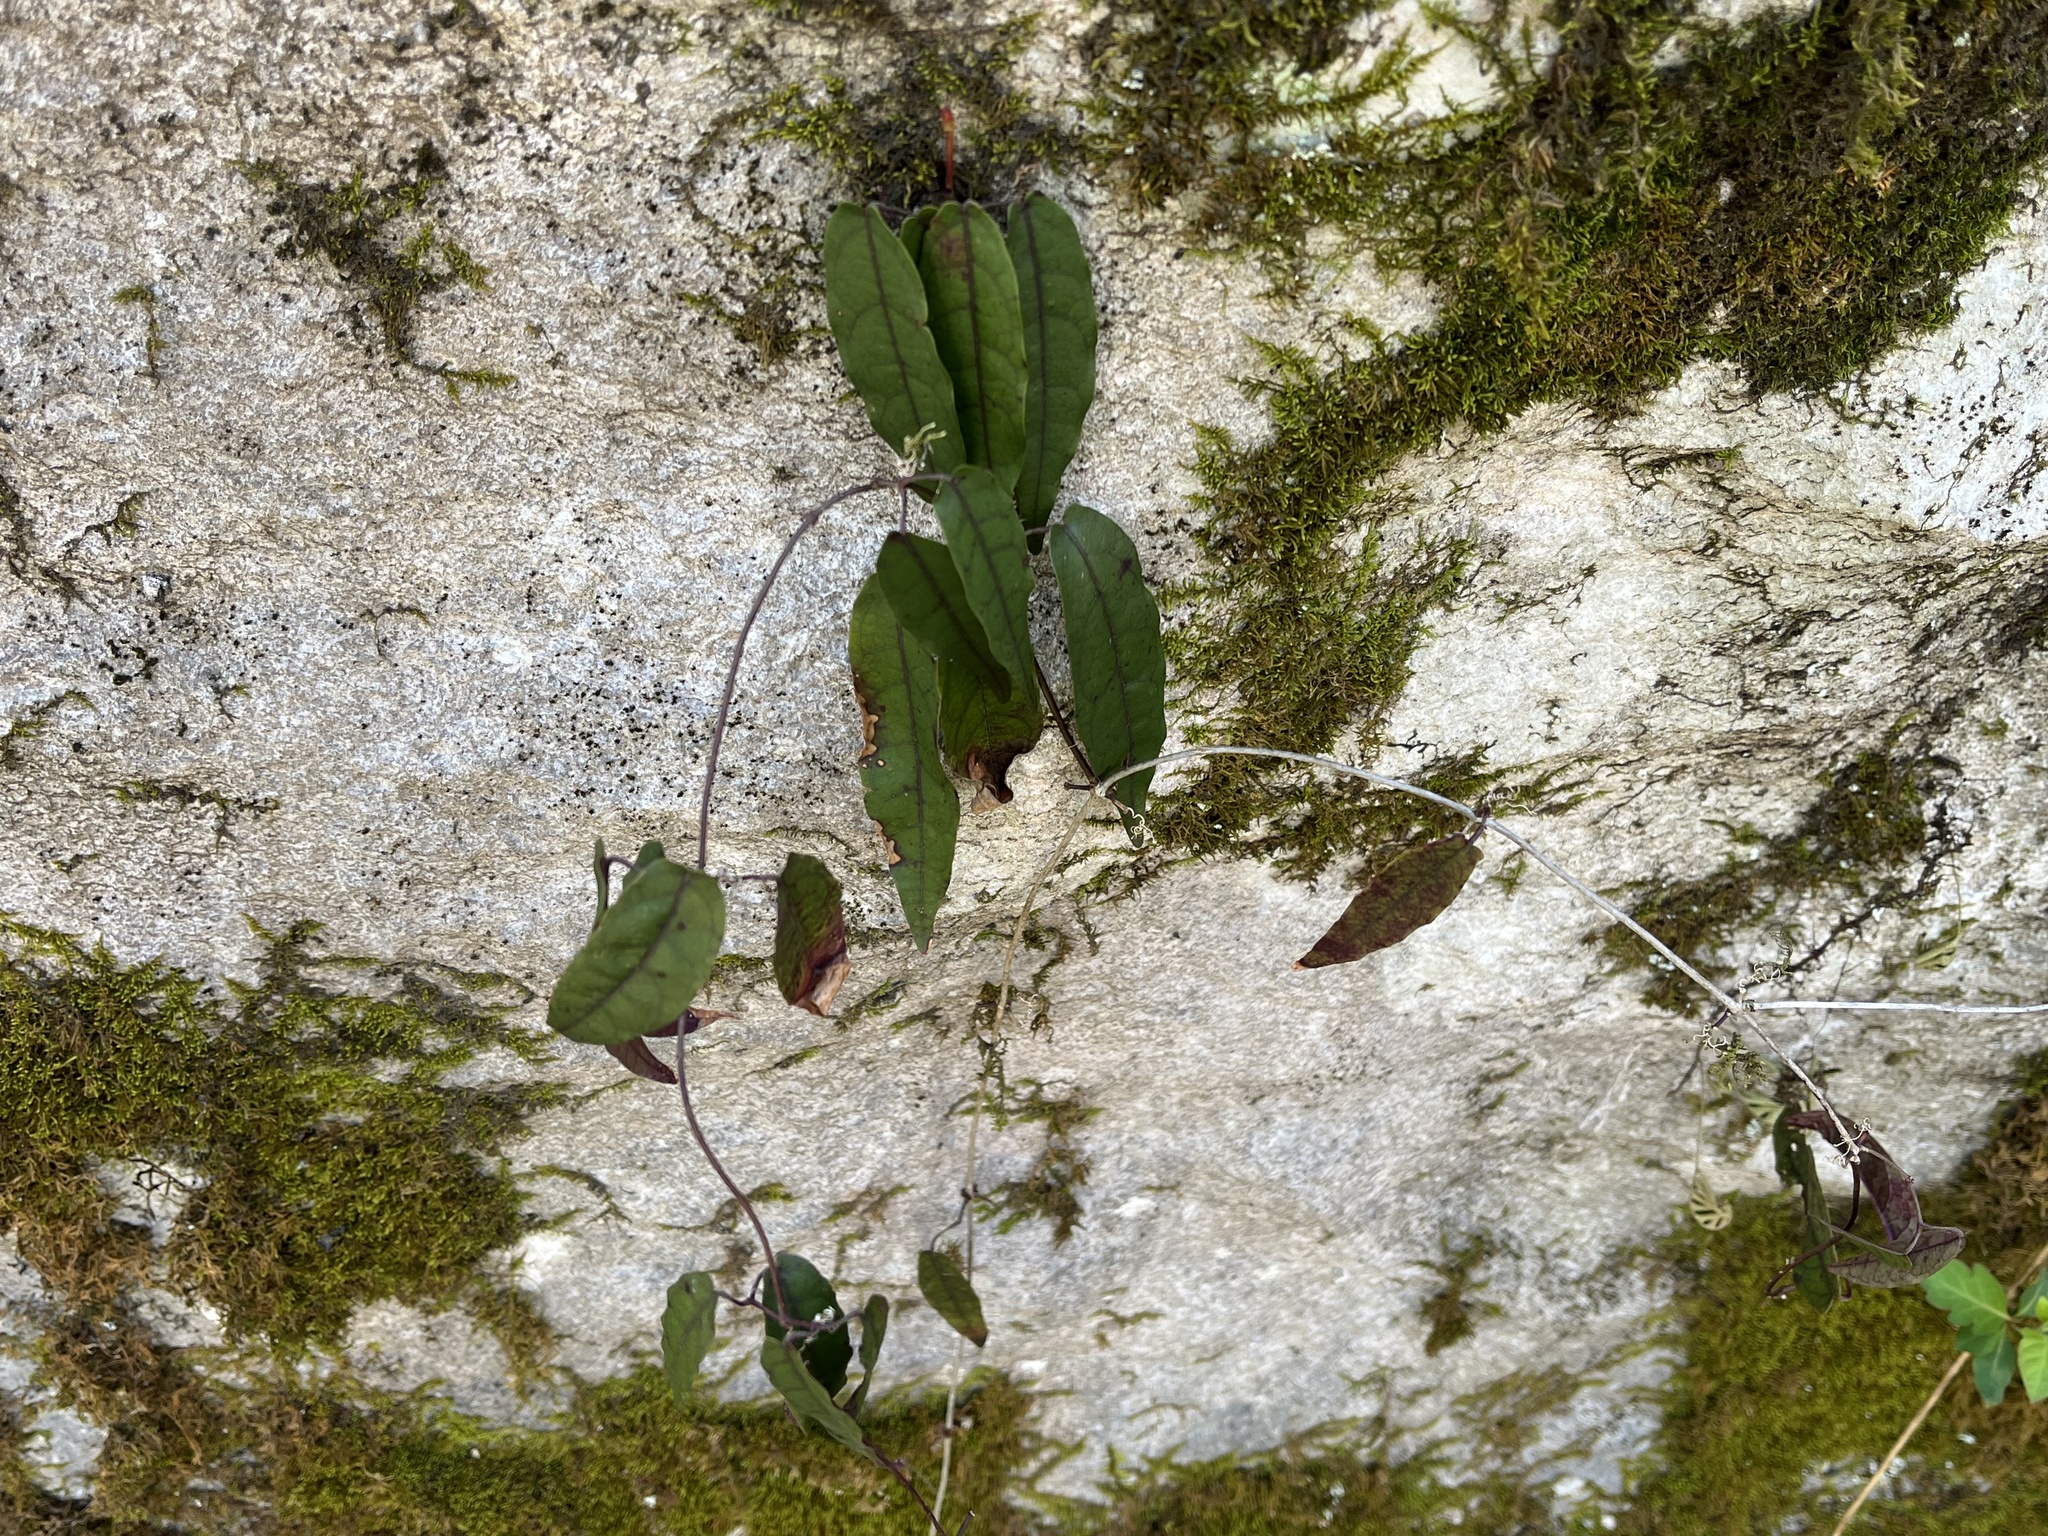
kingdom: Plantae
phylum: Tracheophyta
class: Magnoliopsida
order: Lamiales
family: Bignoniaceae
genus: Bignonia
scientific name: Bignonia capreolata
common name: Crossvine
